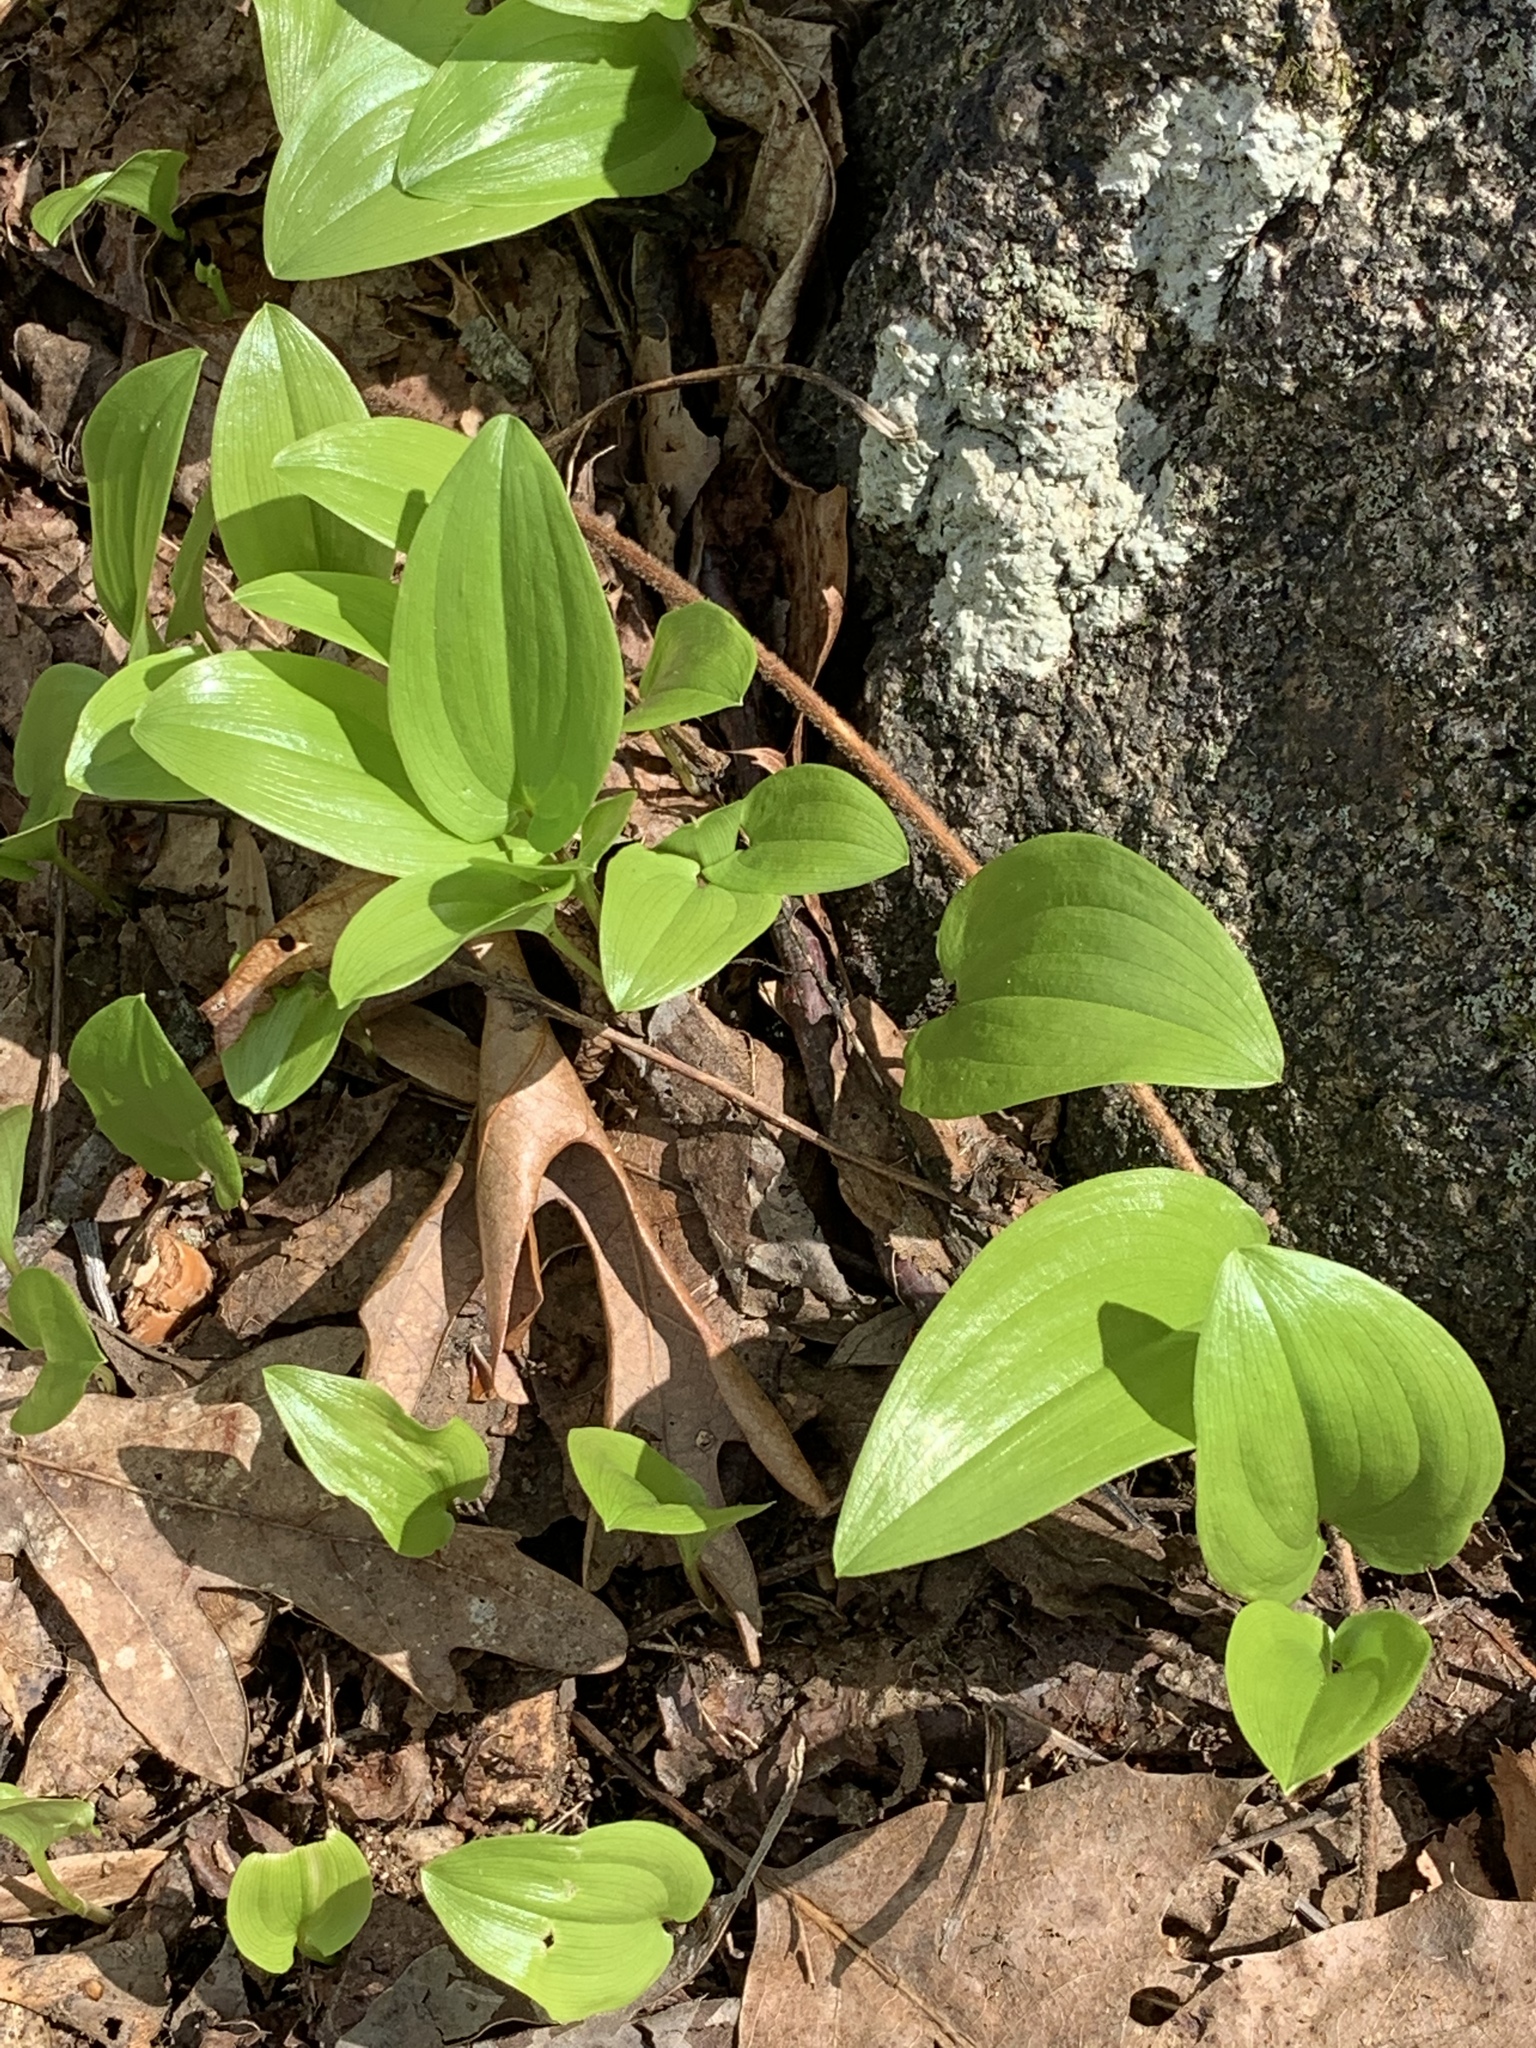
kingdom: Plantae
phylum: Tracheophyta
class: Liliopsida
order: Asparagales
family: Asparagaceae
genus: Maianthemum
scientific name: Maianthemum canadense
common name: False lily-of-the-valley
